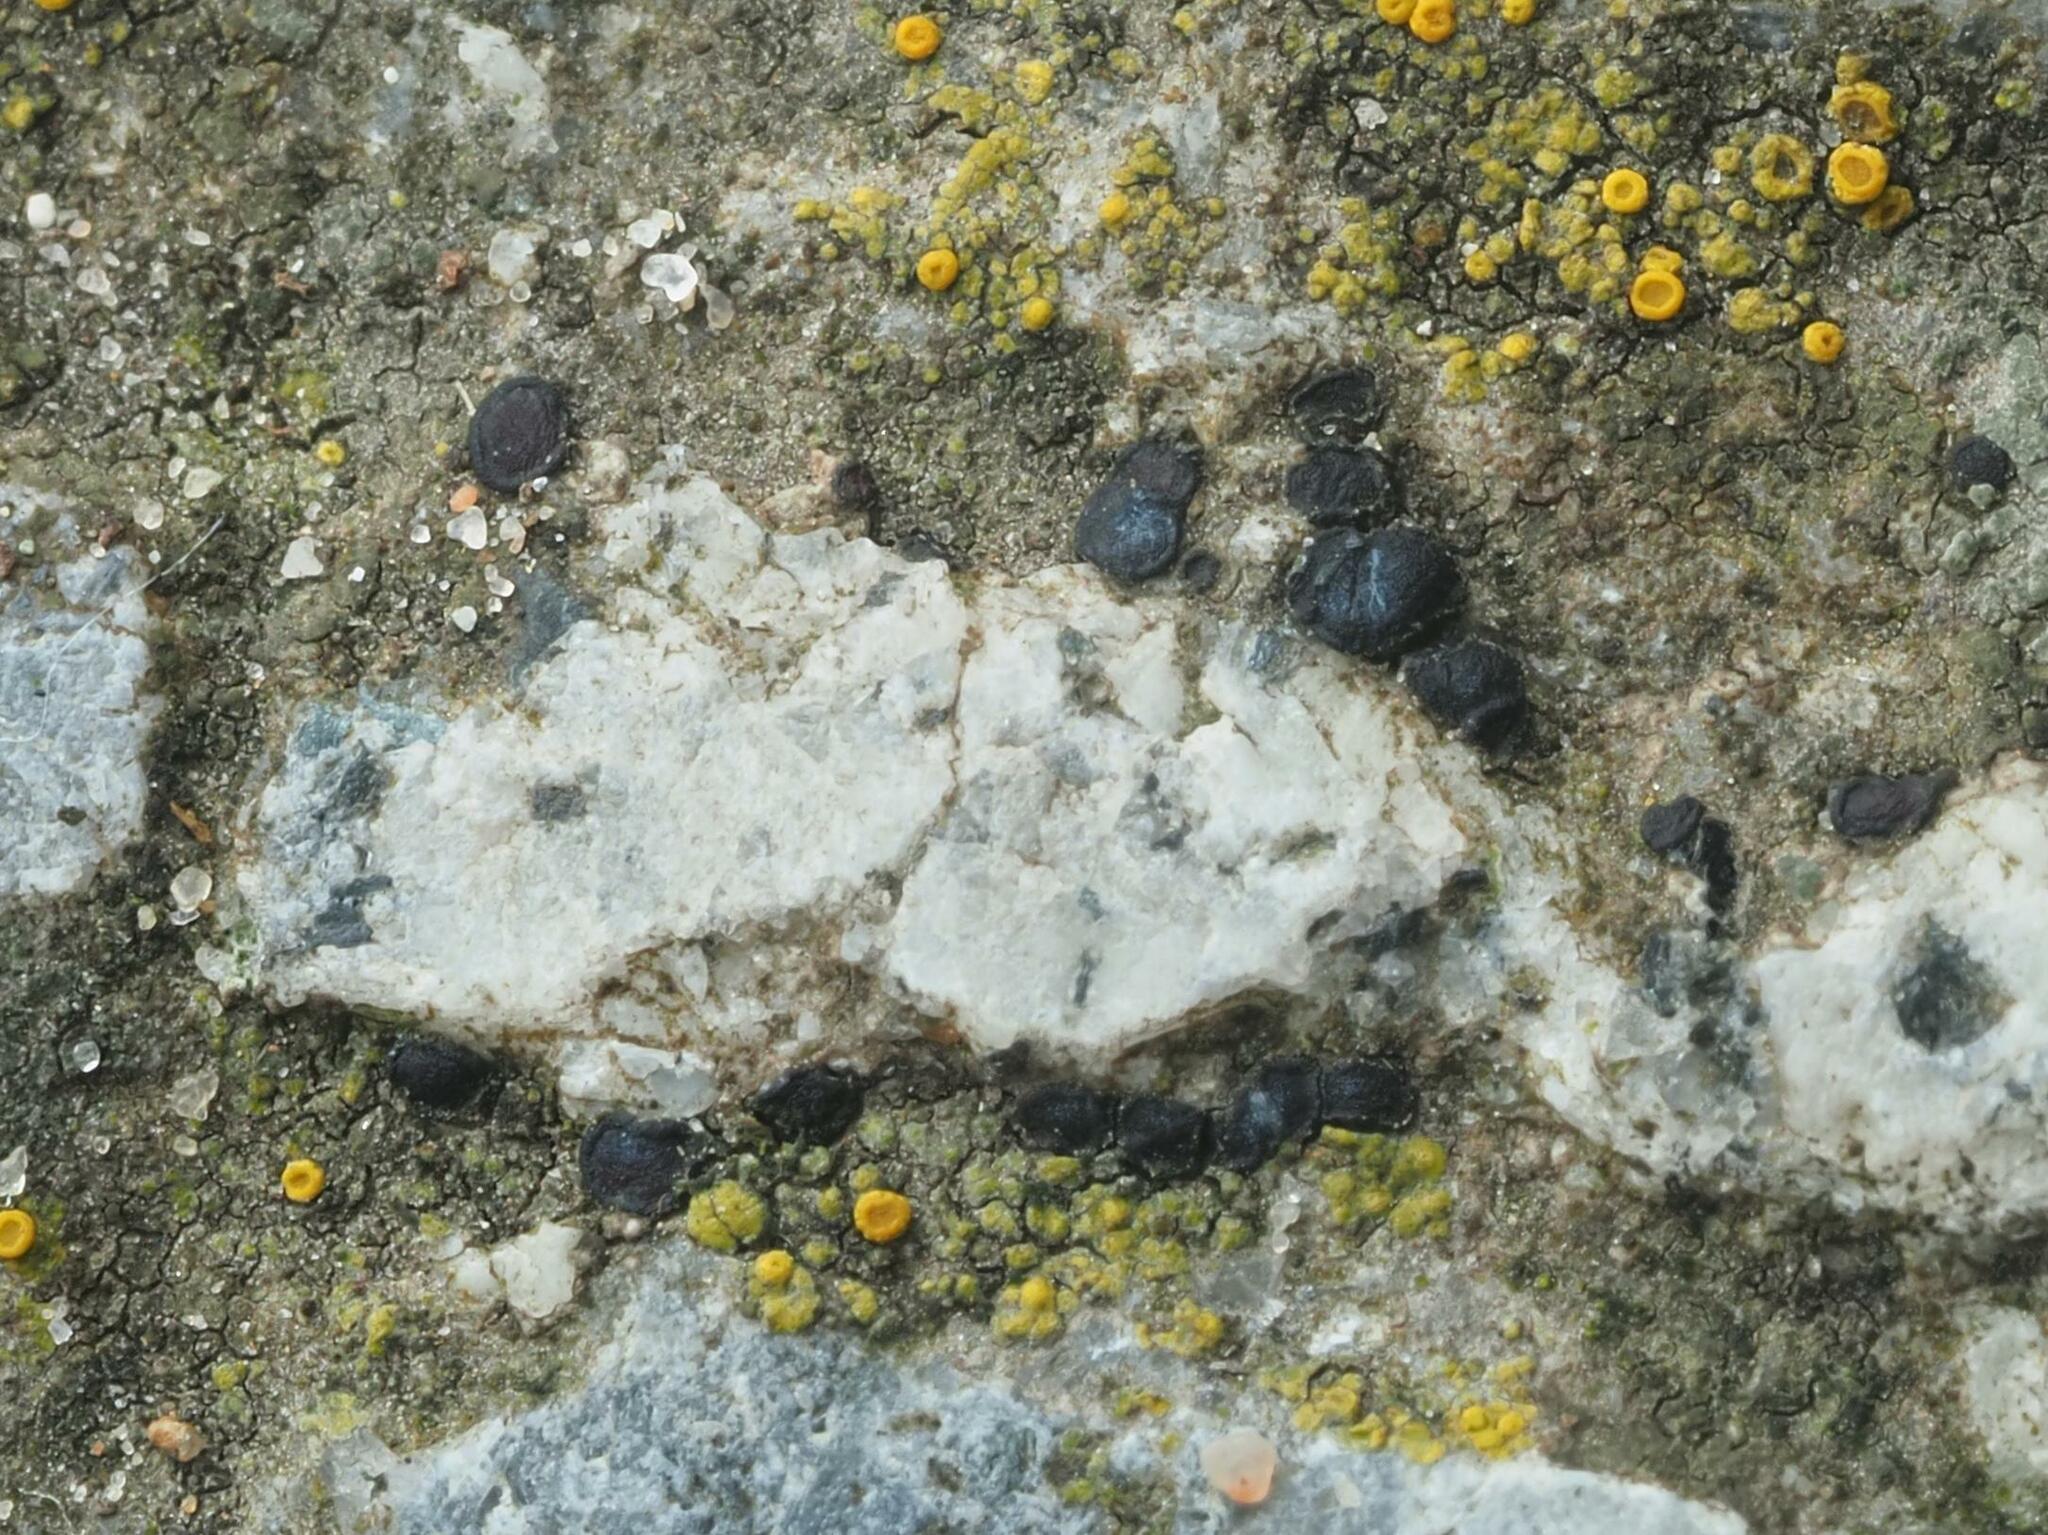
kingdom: Fungi
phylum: Ascomycota
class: Lecanoromycetes
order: Lecanorales
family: Lecanoraceae
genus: Lecidella
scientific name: Lecidella stigmatea
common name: Limestone disc lichen
